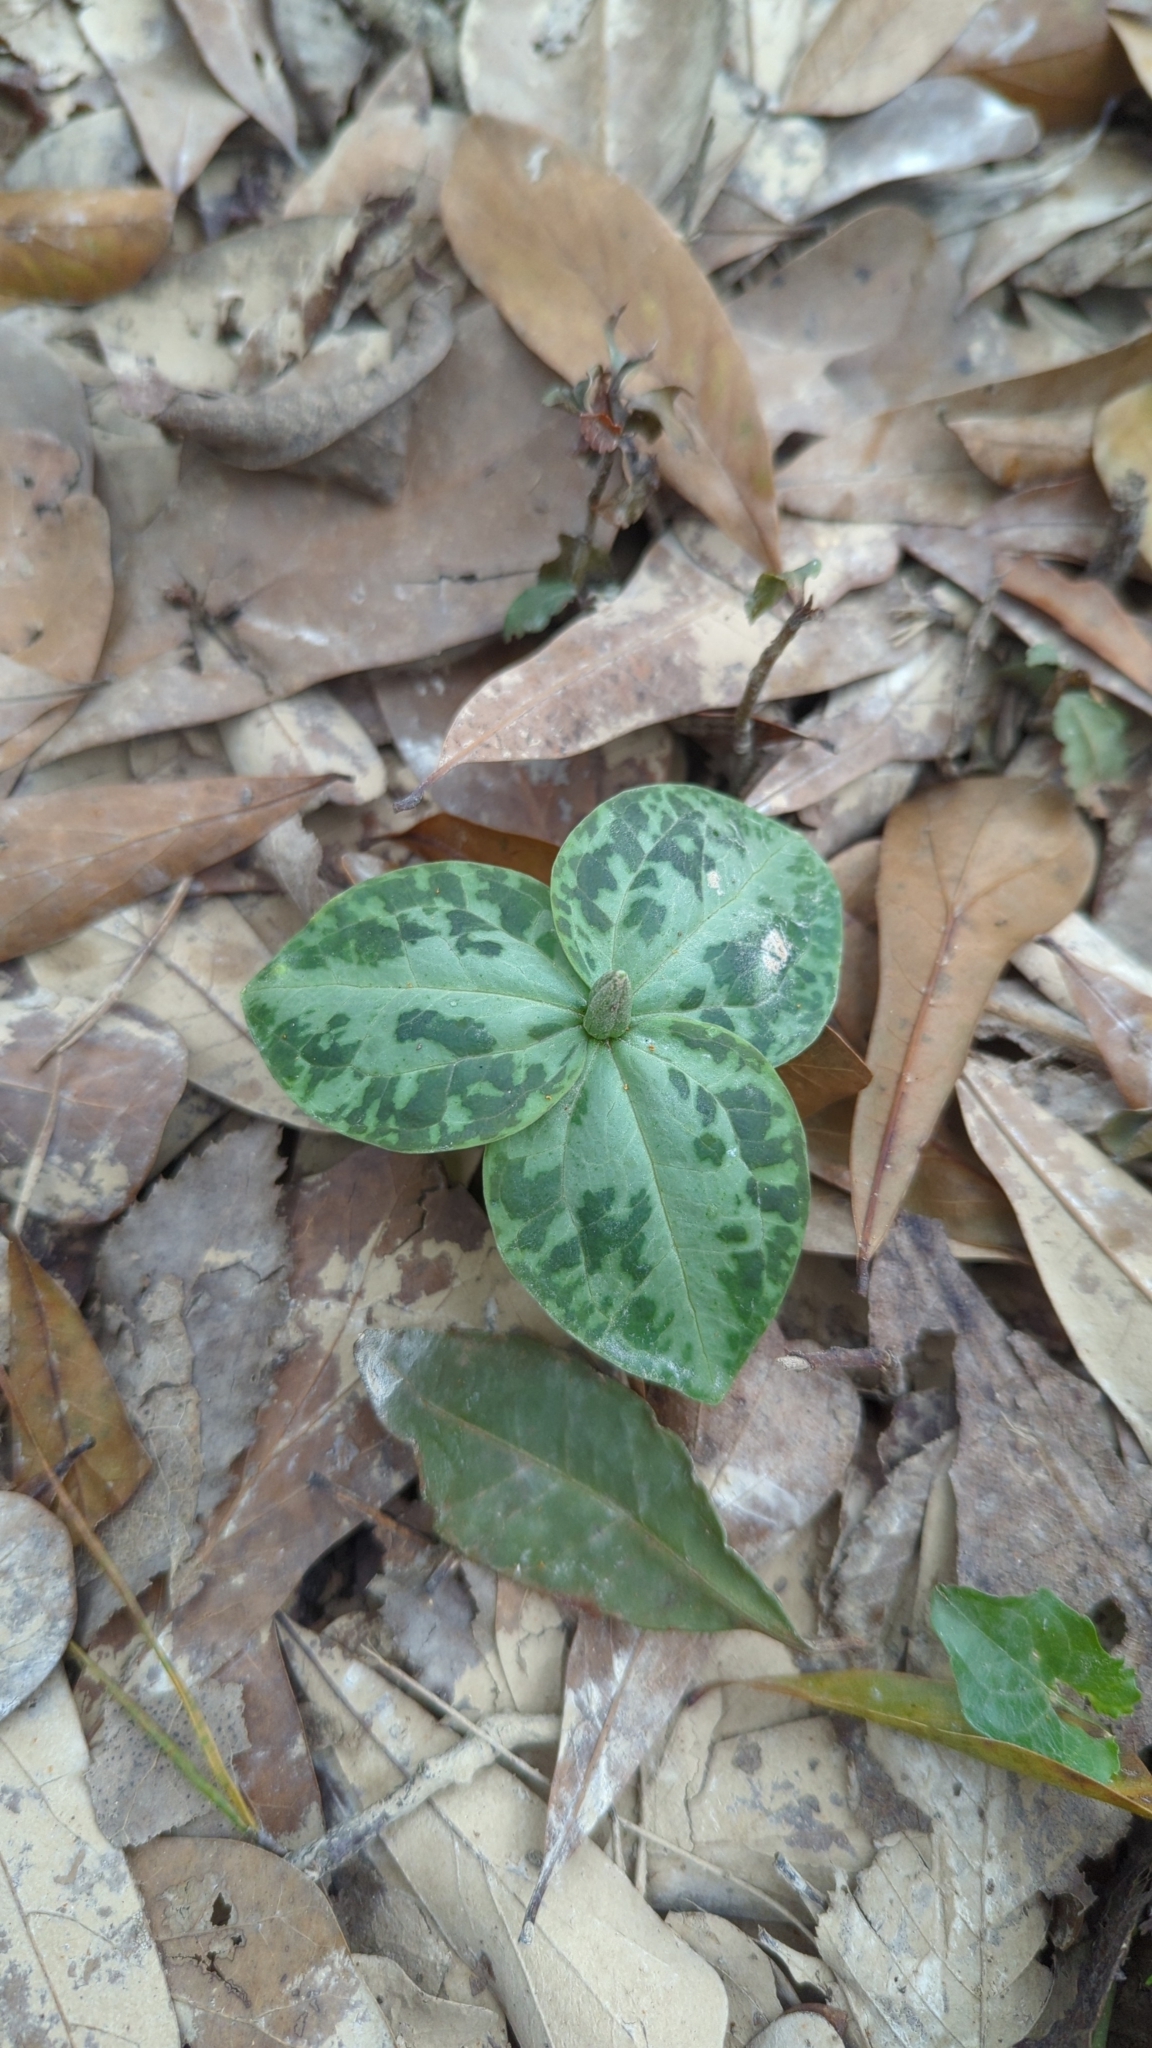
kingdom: Plantae
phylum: Tracheophyta
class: Liliopsida
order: Liliales
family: Melanthiaceae
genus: Trillium
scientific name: Trillium foetidissimum
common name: Mississippi river trillium
